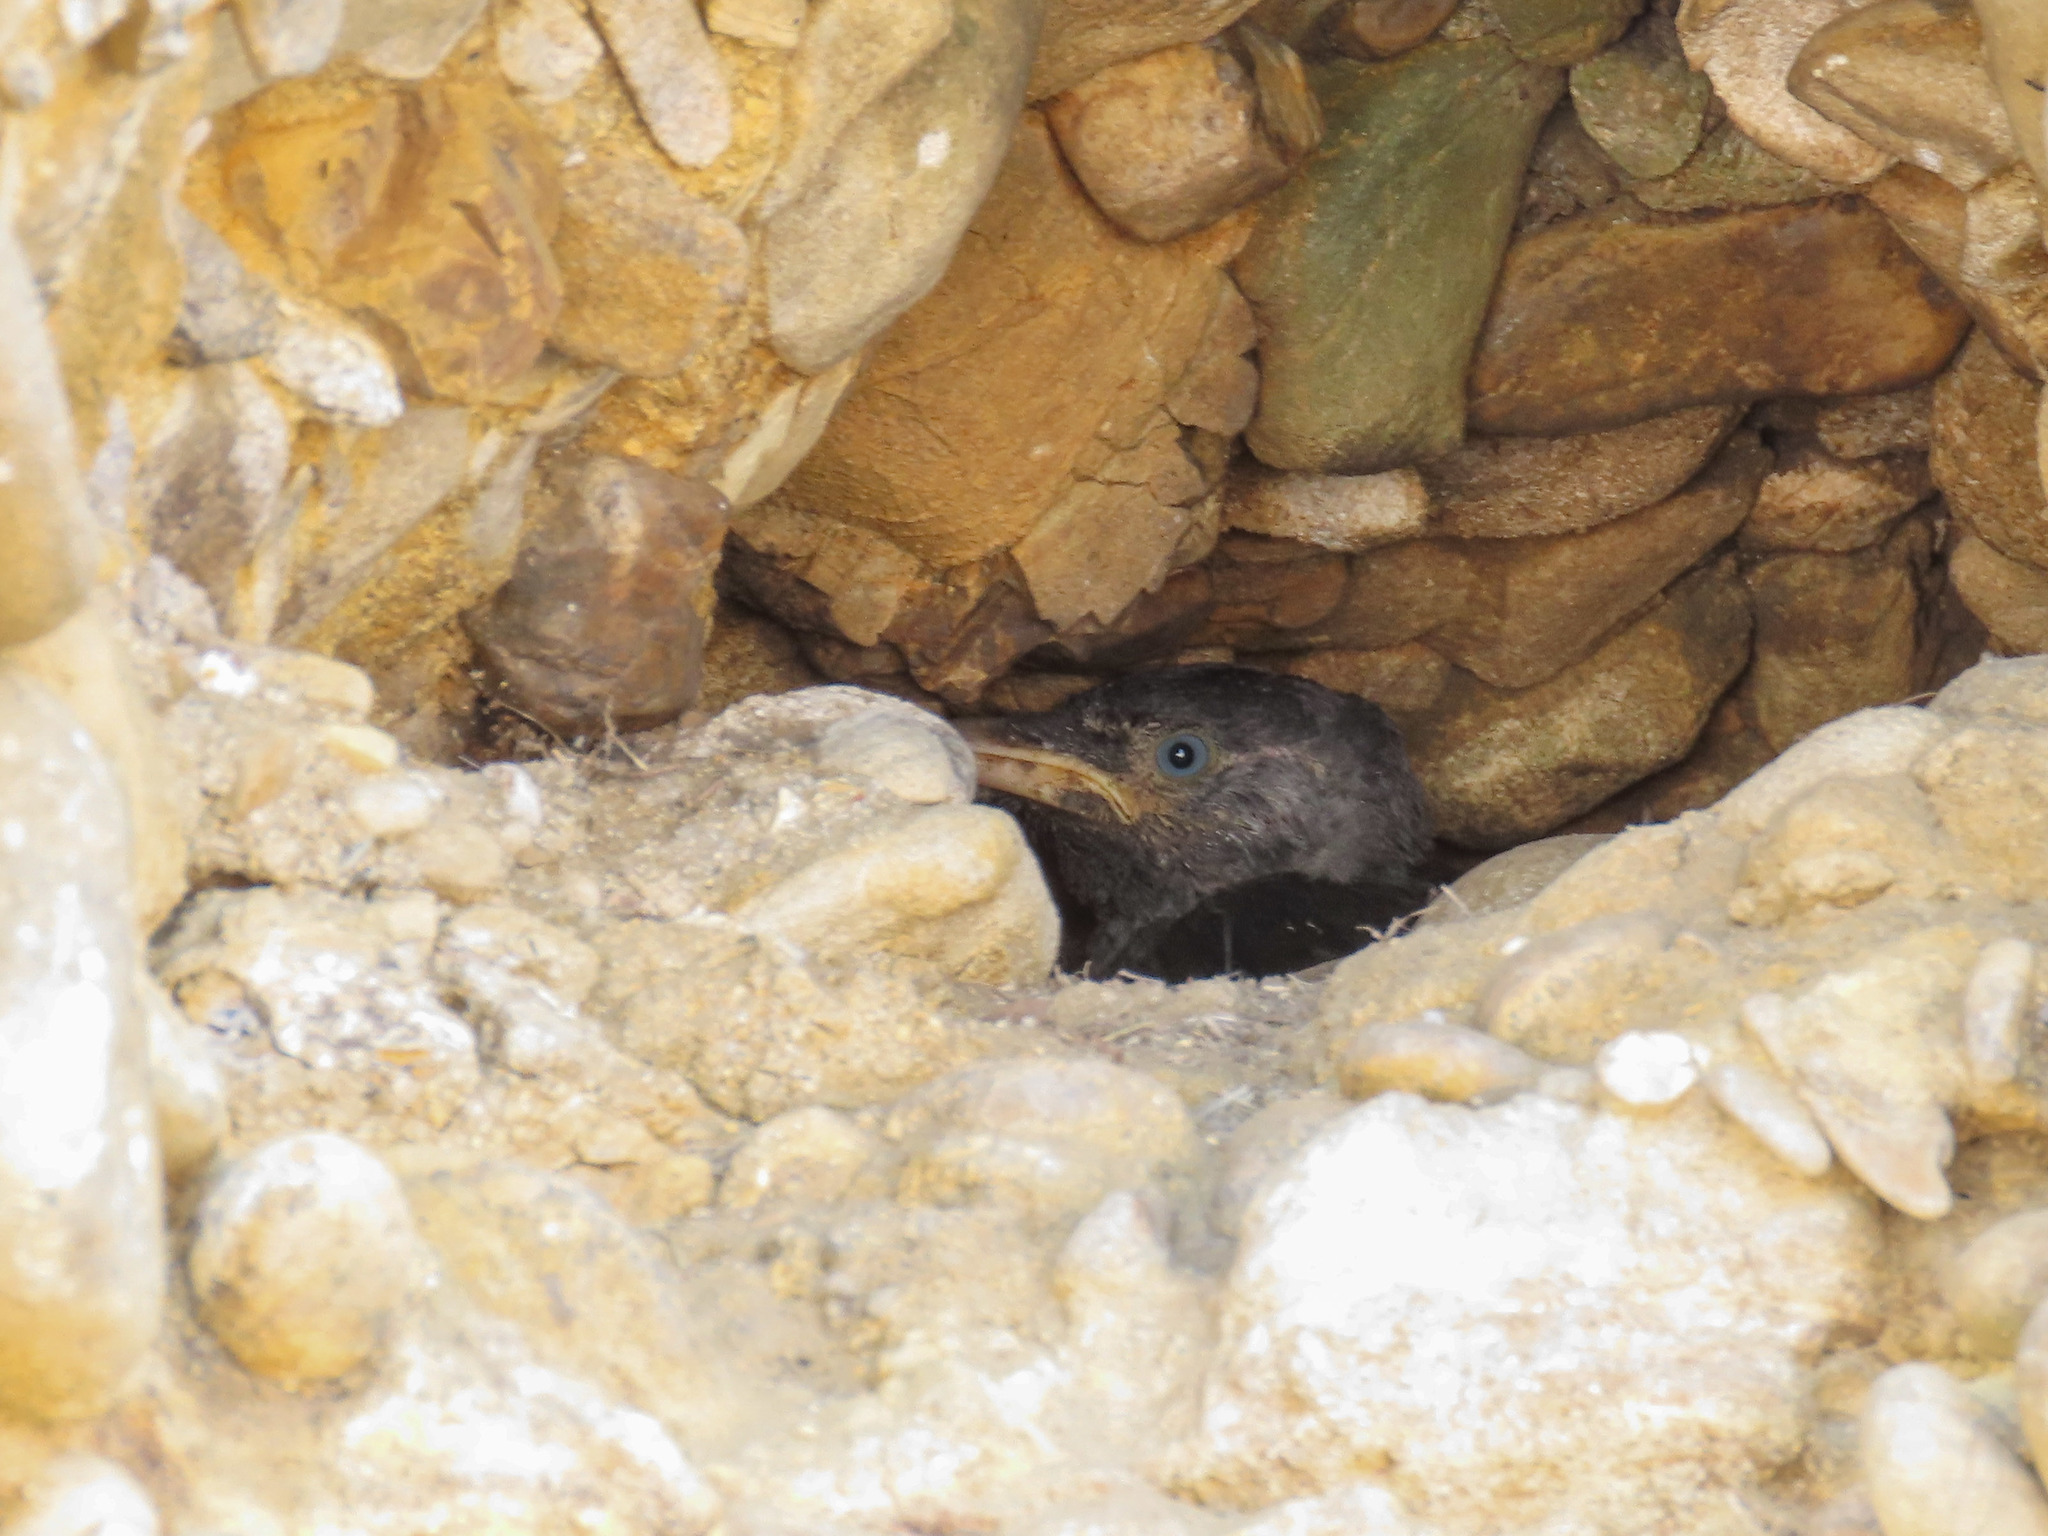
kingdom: Animalia
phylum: Chordata
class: Aves
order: Passeriformes
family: Corvidae
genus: Coloeus
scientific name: Coloeus monedula
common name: Western jackdaw
